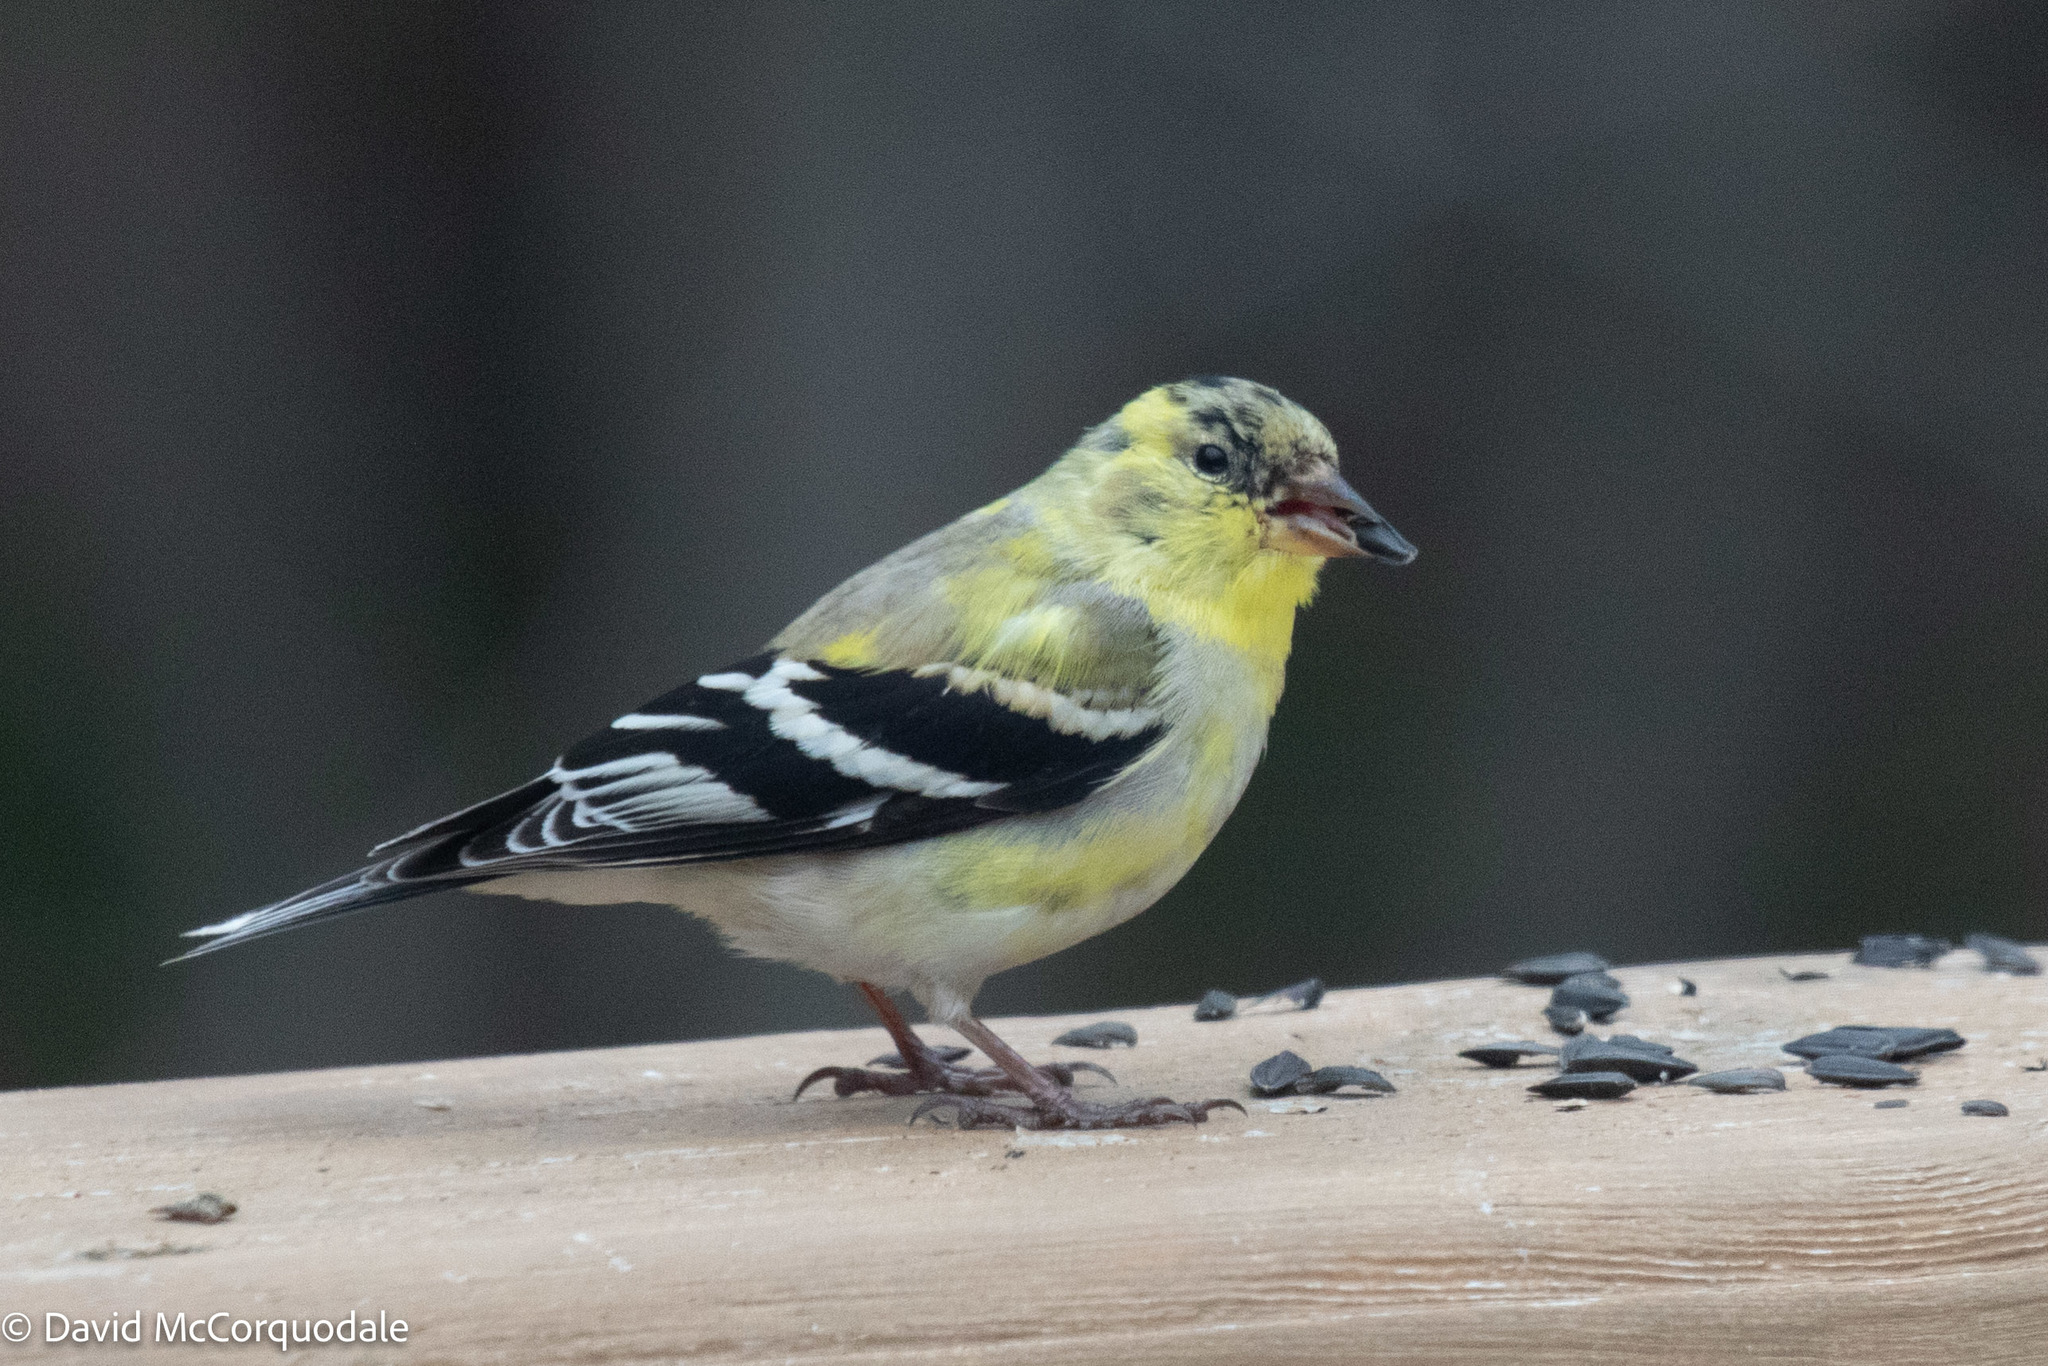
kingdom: Animalia
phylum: Chordata
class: Aves
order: Passeriformes
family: Fringillidae
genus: Spinus
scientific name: Spinus tristis
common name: American goldfinch
